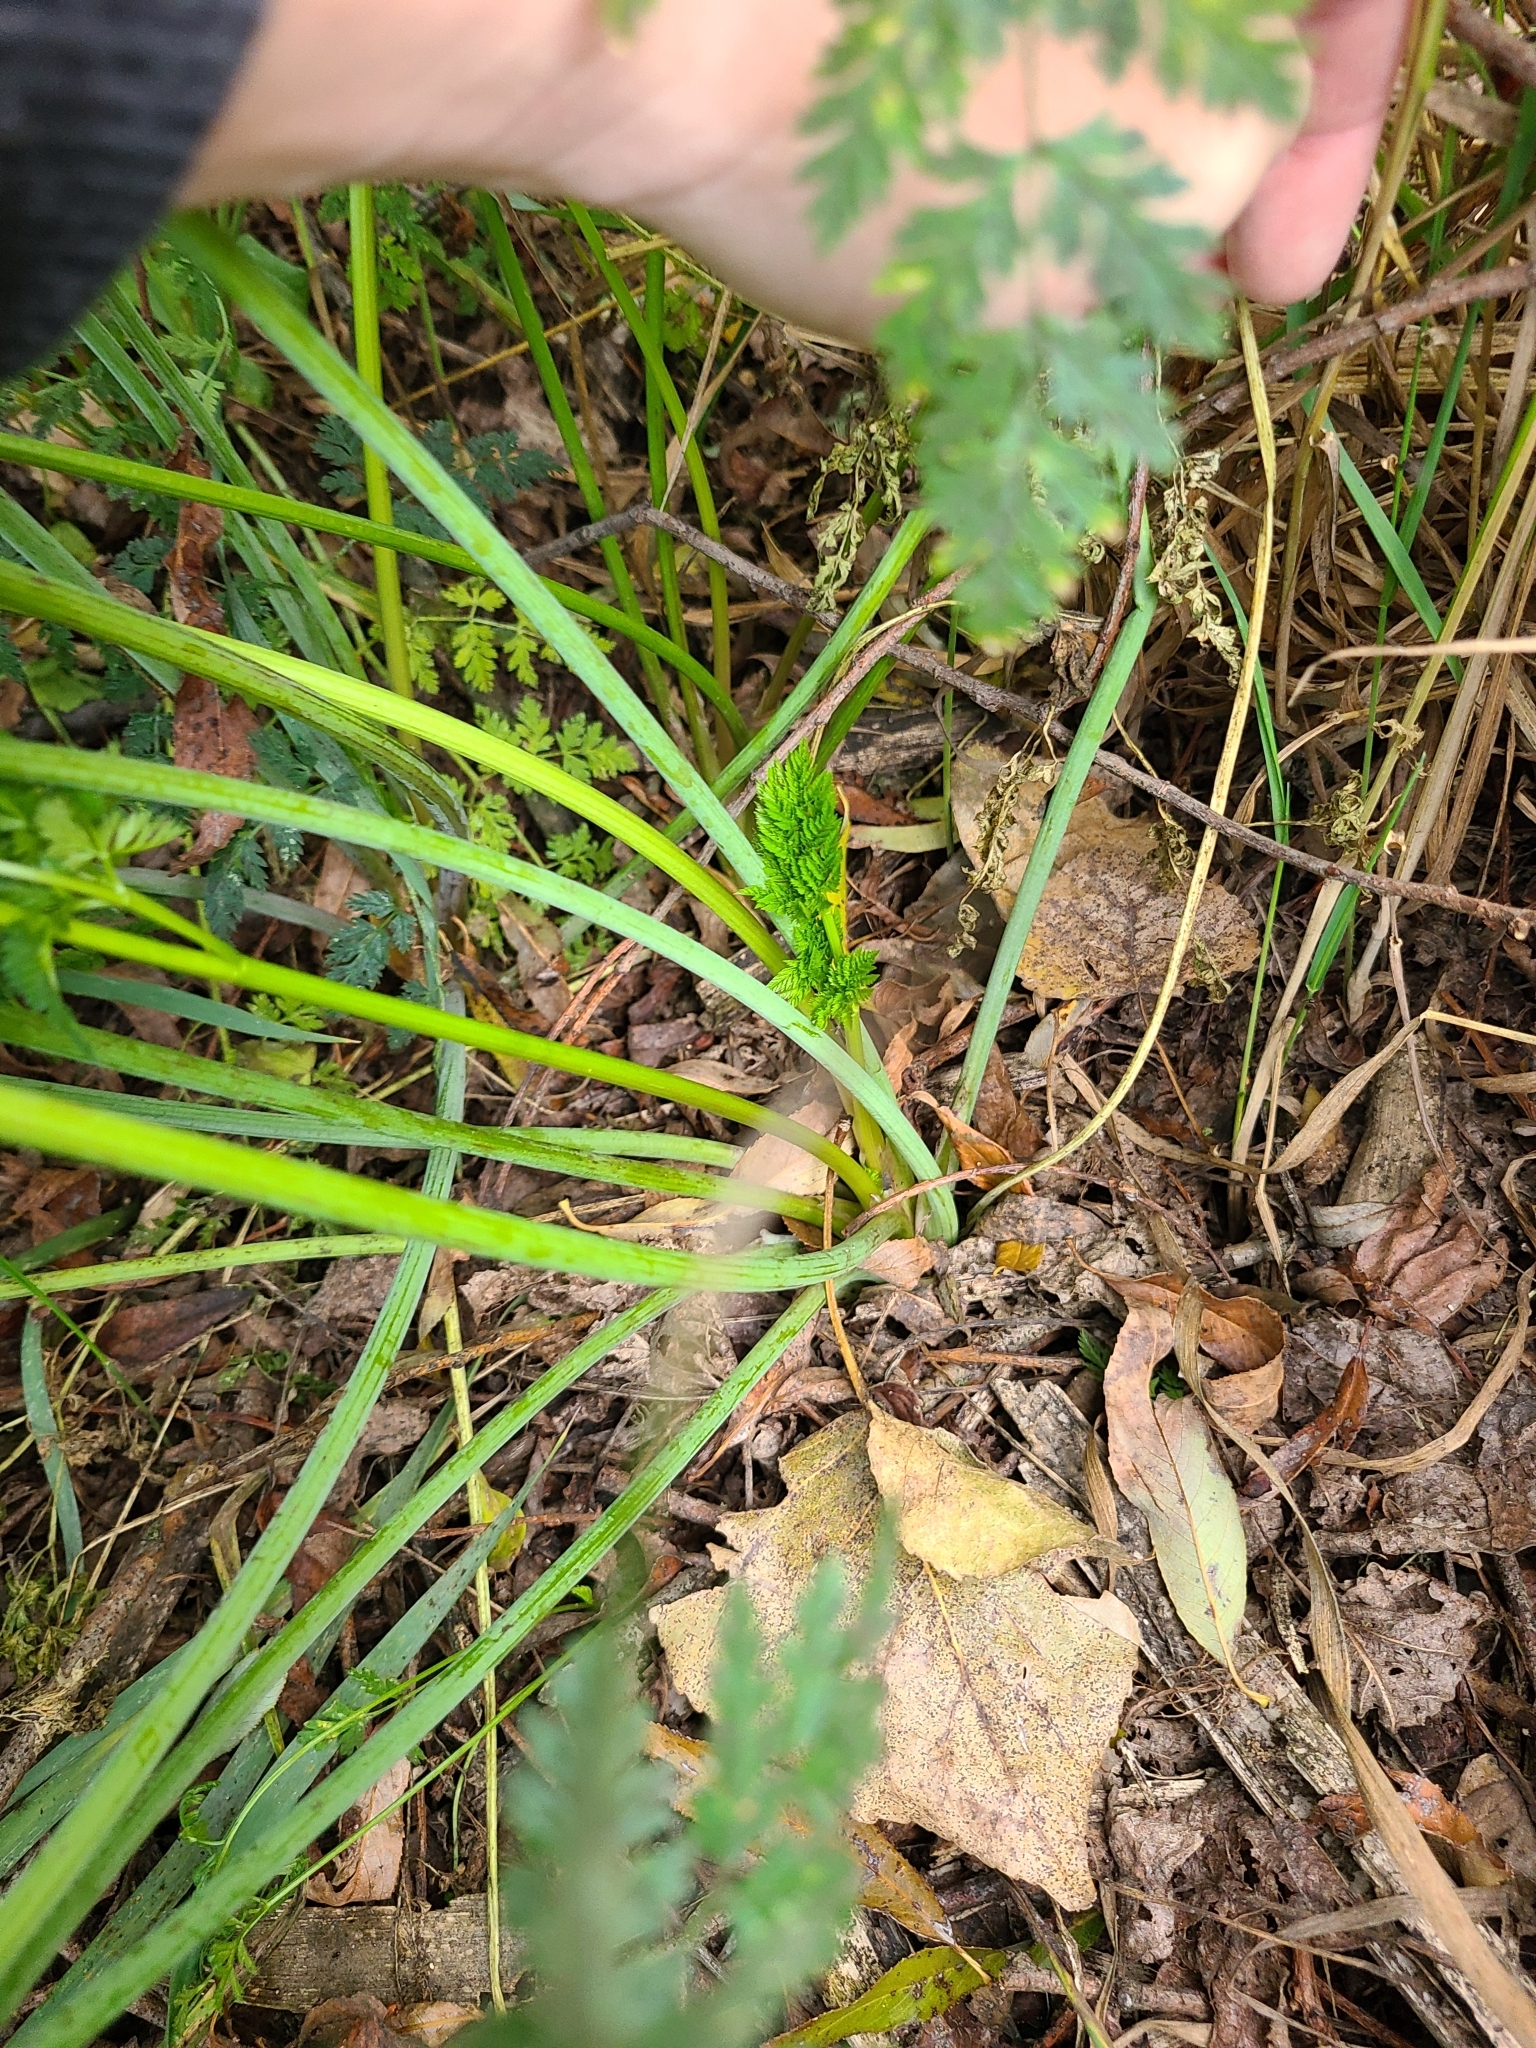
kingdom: Plantae
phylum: Tracheophyta
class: Magnoliopsida
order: Apiales
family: Apiaceae
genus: Conium
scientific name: Conium maculatum
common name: Hemlock
